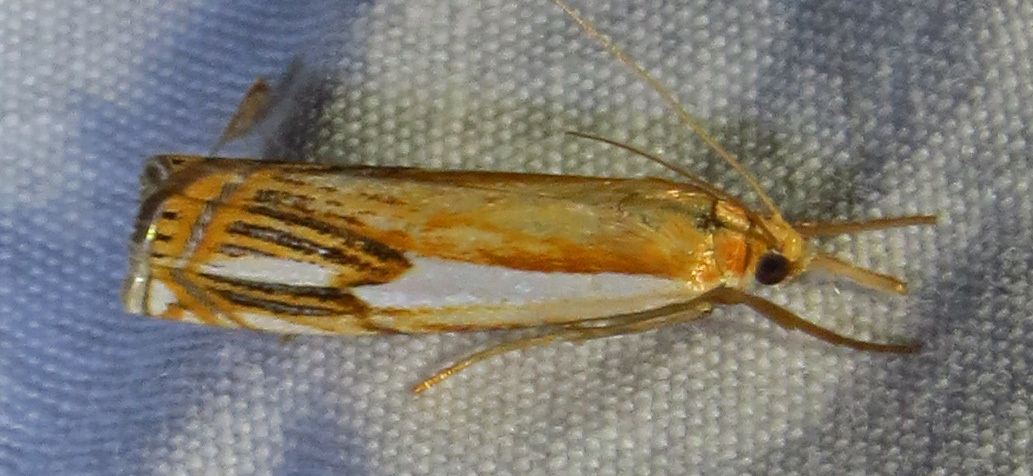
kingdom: Animalia
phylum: Arthropoda
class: Insecta
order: Lepidoptera
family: Crambidae
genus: Crambus
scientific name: Crambus agitatellus
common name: Double-banded grass-veneer
